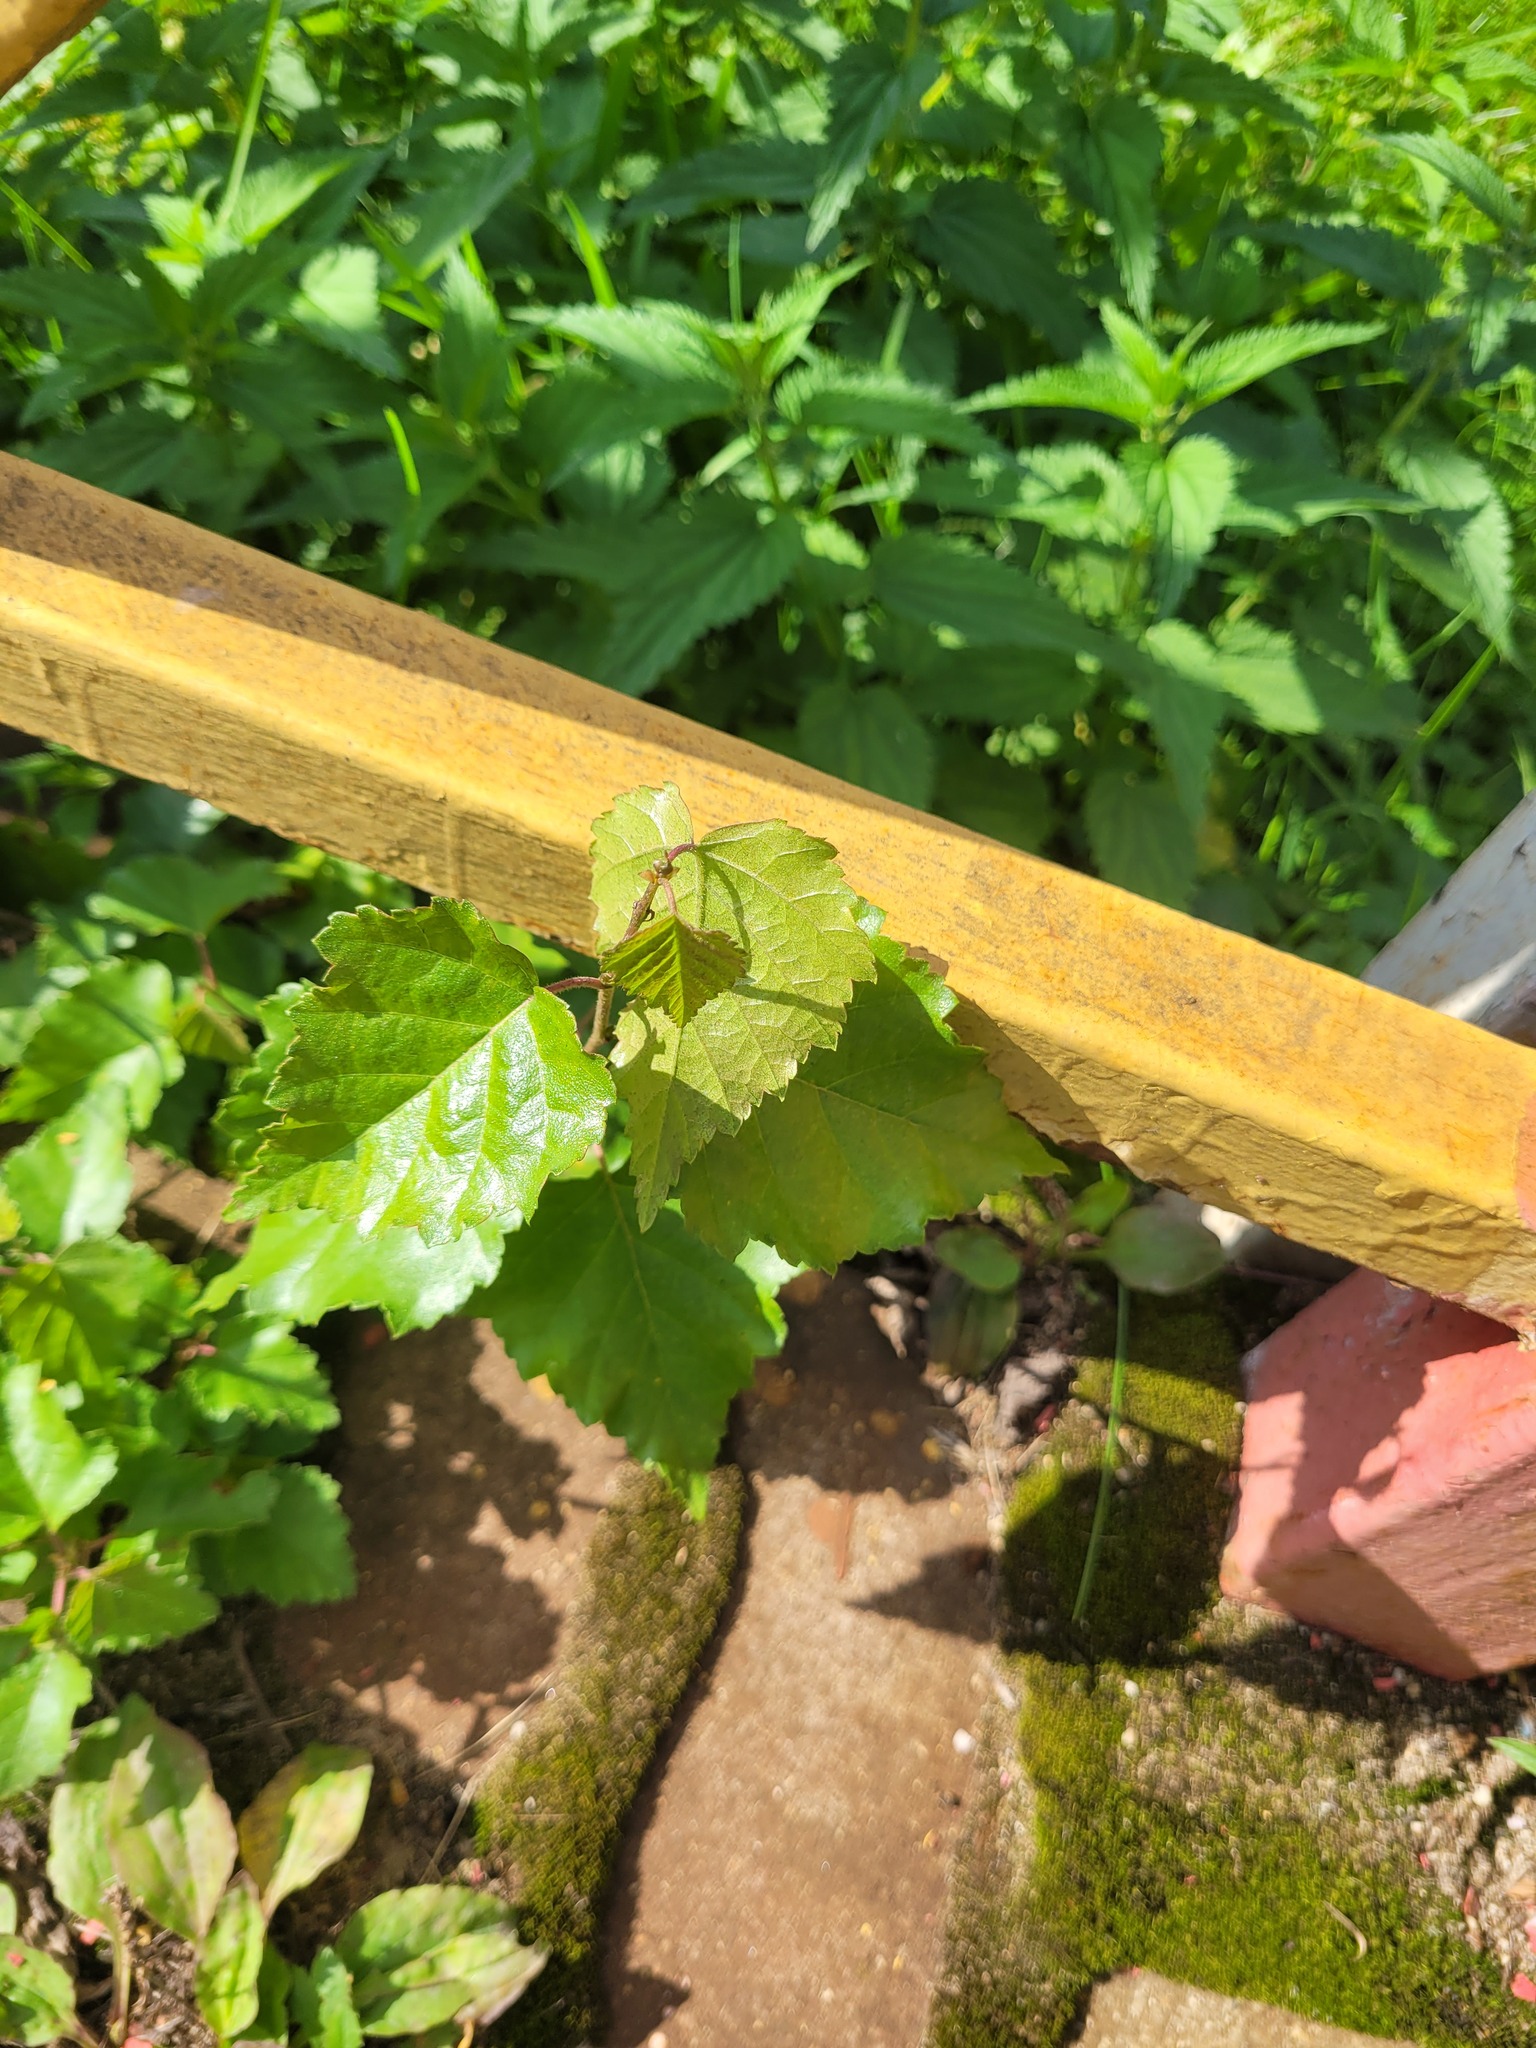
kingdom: Plantae
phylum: Tracheophyta
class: Magnoliopsida
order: Fagales
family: Betulaceae
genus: Betula
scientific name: Betula pendula
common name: Silver birch
